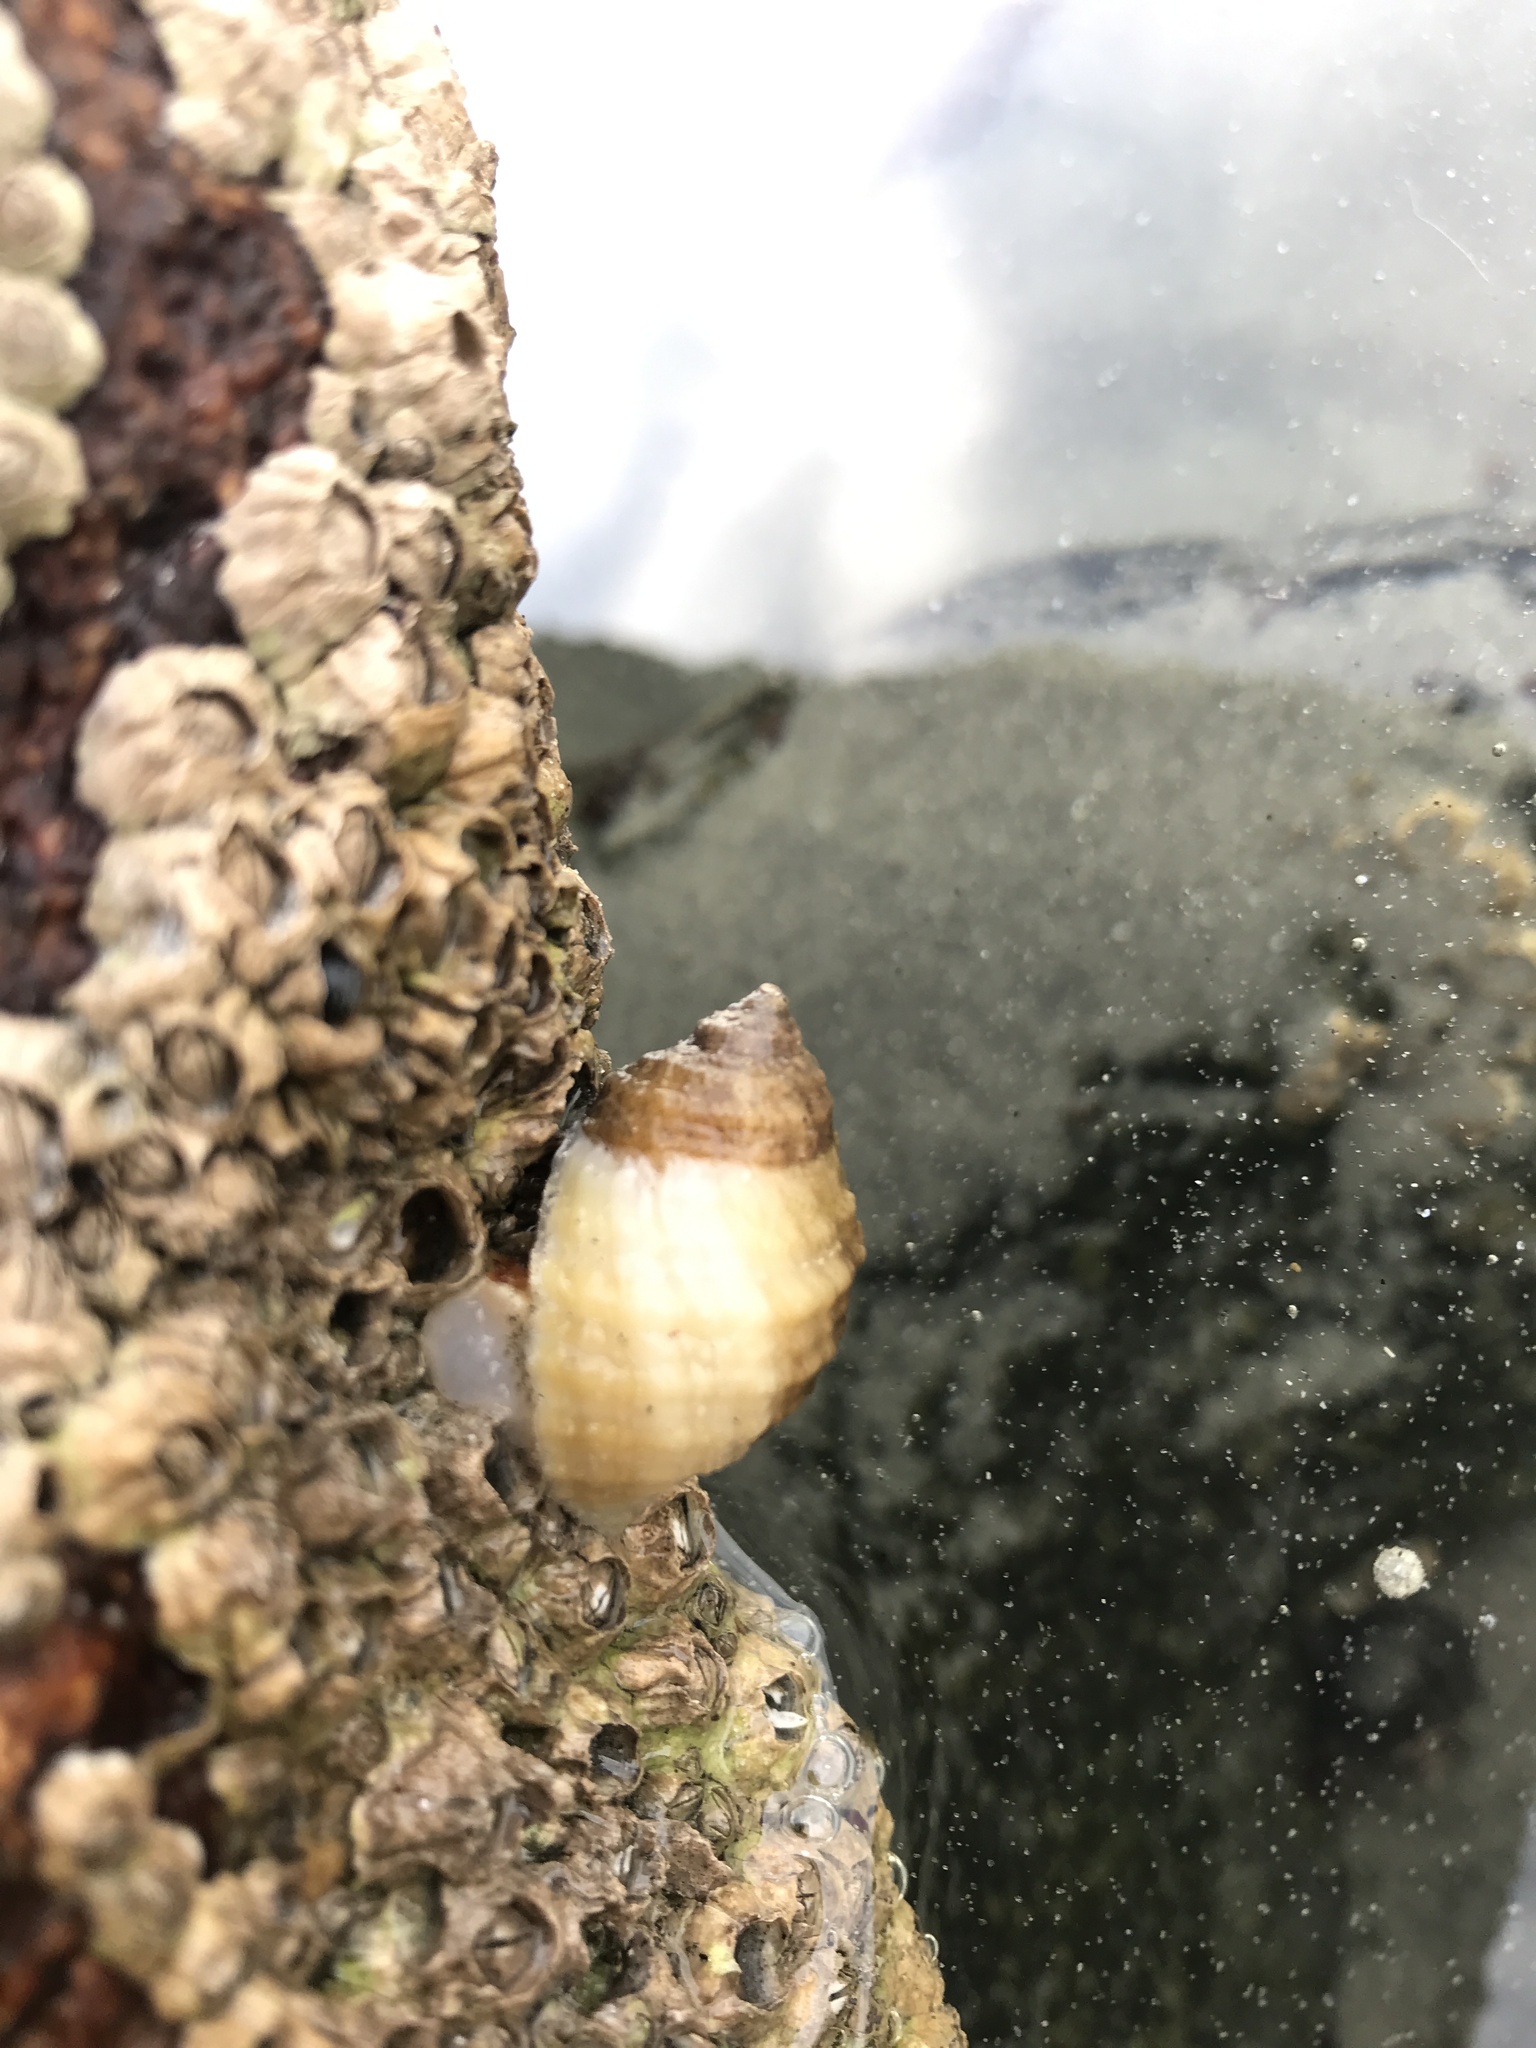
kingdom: Animalia
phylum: Mollusca
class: Gastropoda
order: Neogastropoda
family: Muricidae
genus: Nucella
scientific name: Nucella lapillus
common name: Dog whelk
